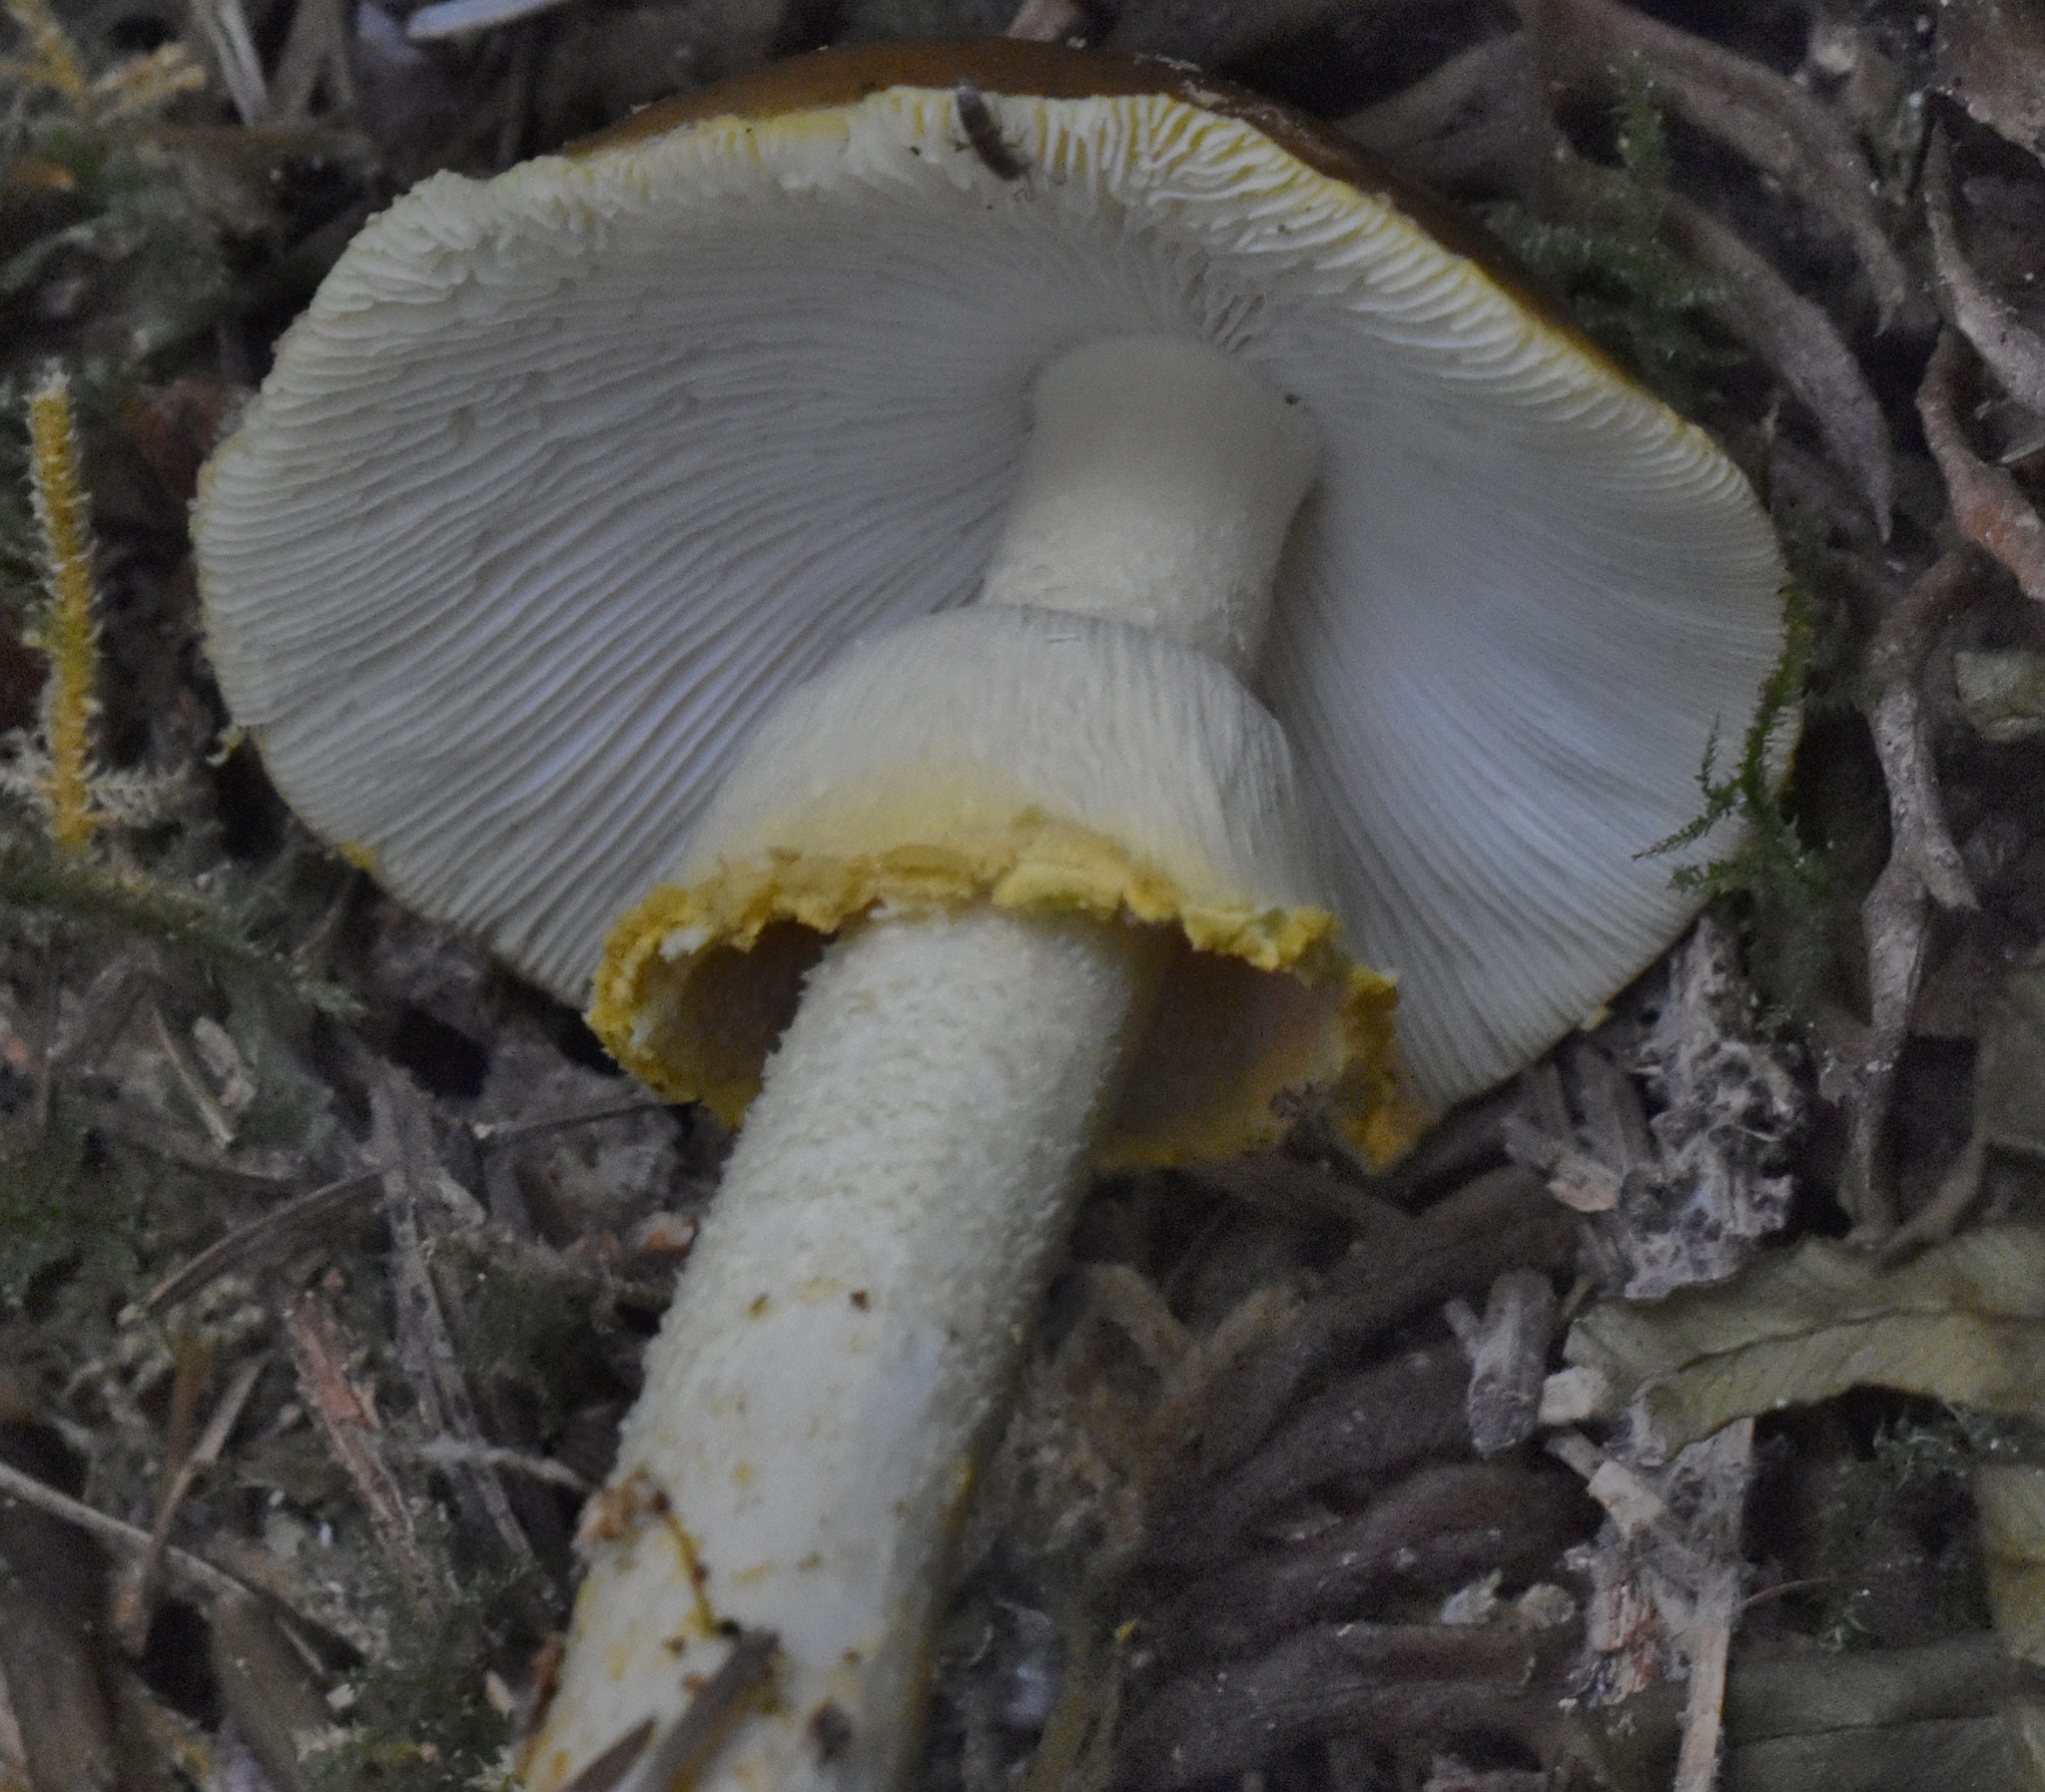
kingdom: Fungi
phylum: Basidiomycota
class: Agaricomycetes
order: Agaricales
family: Amanitaceae
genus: Amanita
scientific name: Amanita augusta
